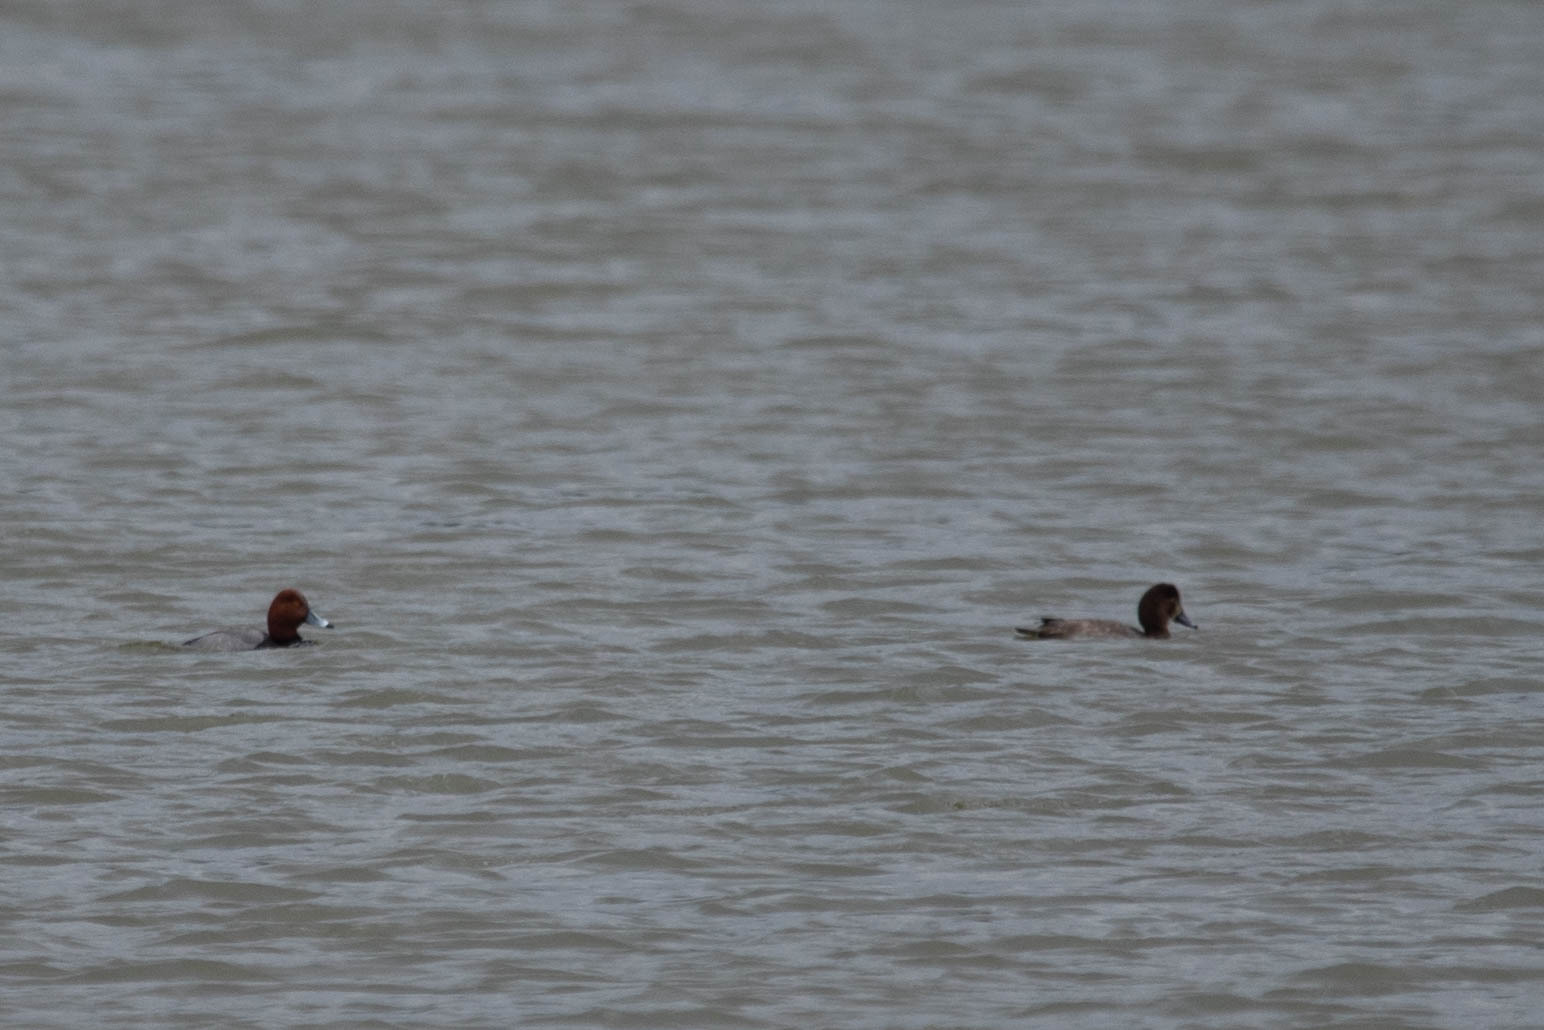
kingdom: Animalia
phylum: Chordata
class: Aves
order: Anseriformes
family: Anatidae
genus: Aythya
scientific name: Aythya americana
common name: Redhead
